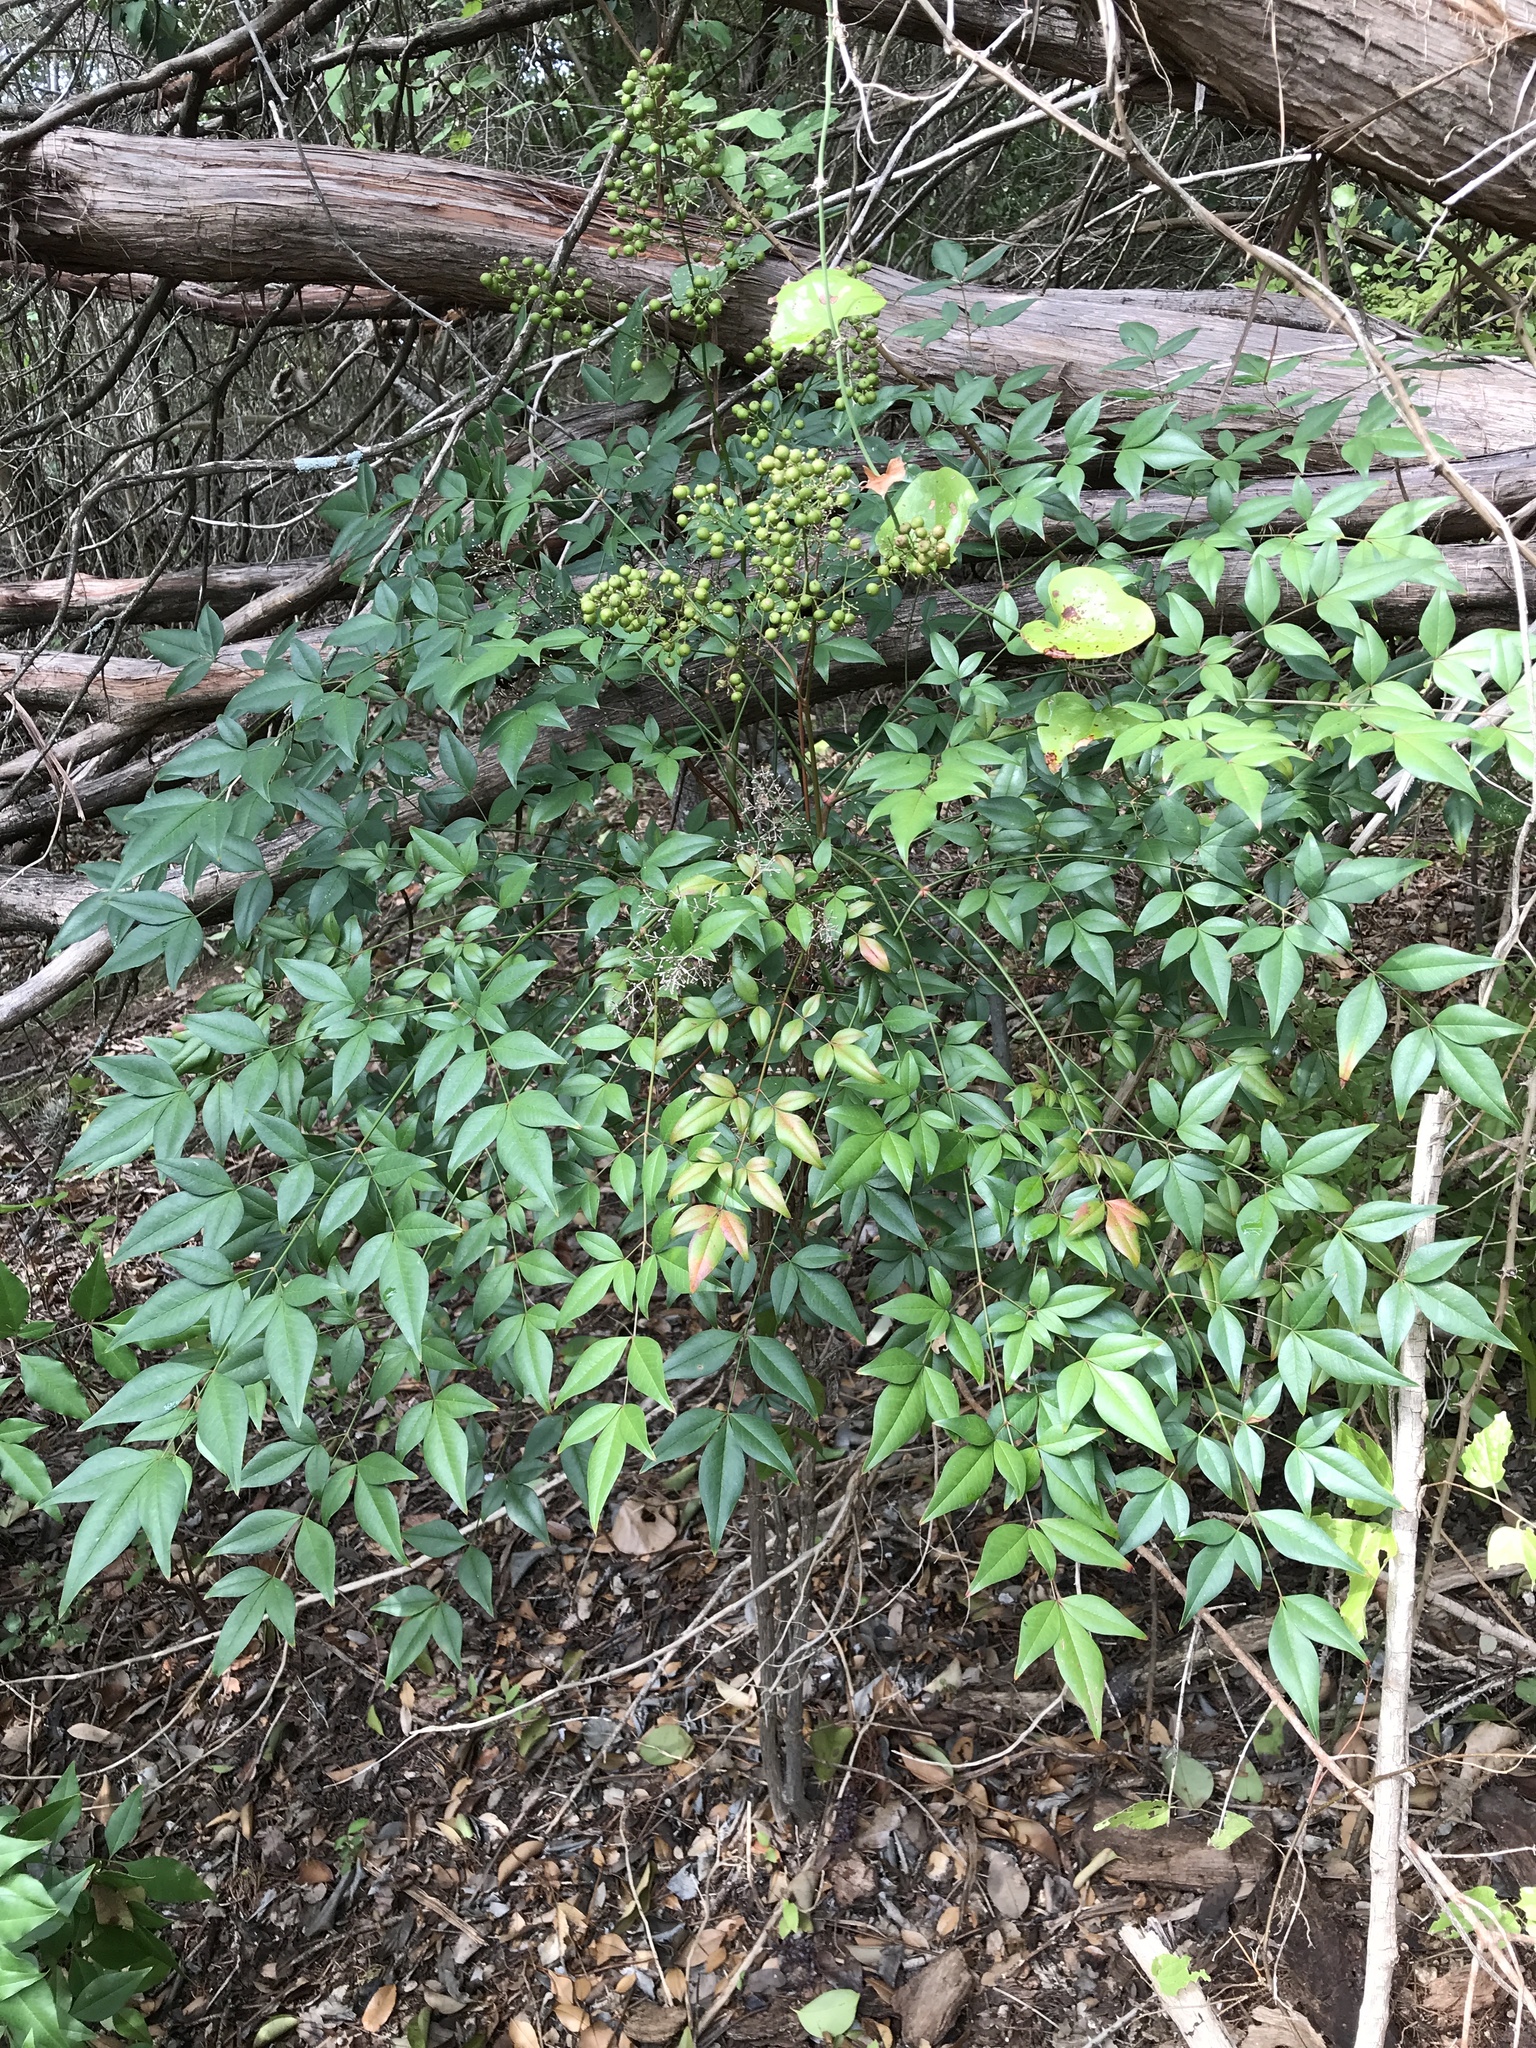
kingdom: Plantae
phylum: Tracheophyta
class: Magnoliopsida
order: Ranunculales
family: Berberidaceae
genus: Nandina
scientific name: Nandina domestica
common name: Sacred bamboo
